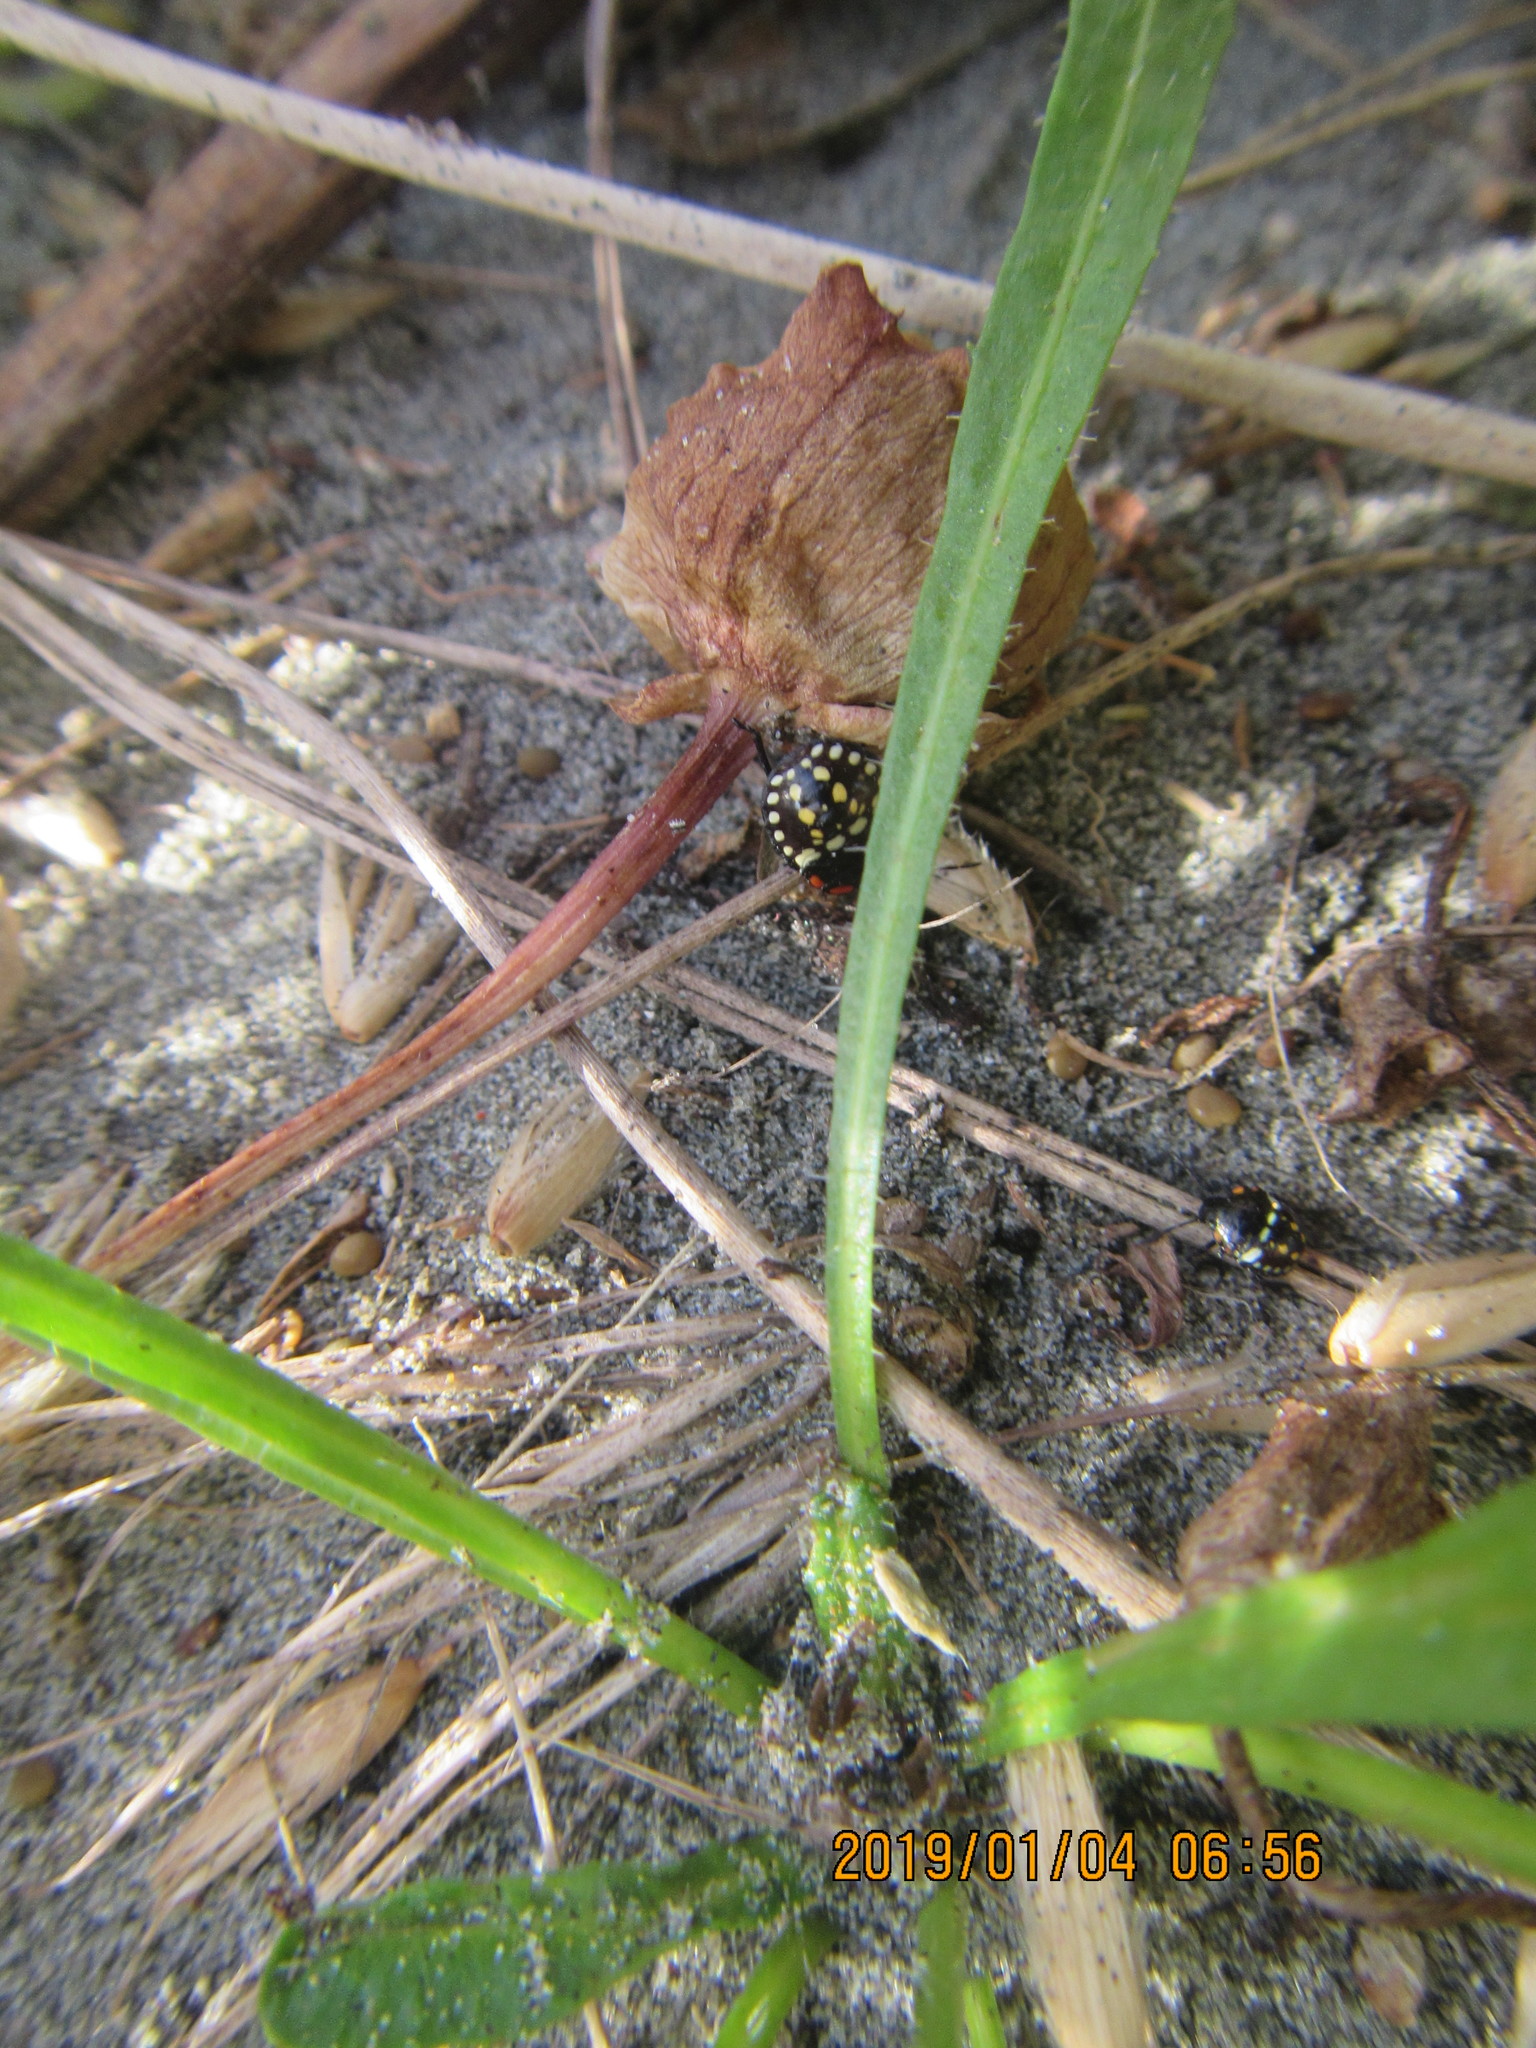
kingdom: Animalia
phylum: Arthropoda
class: Insecta
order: Hemiptera
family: Pentatomidae
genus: Nezara
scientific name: Nezara viridula
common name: Southern green stink bug
